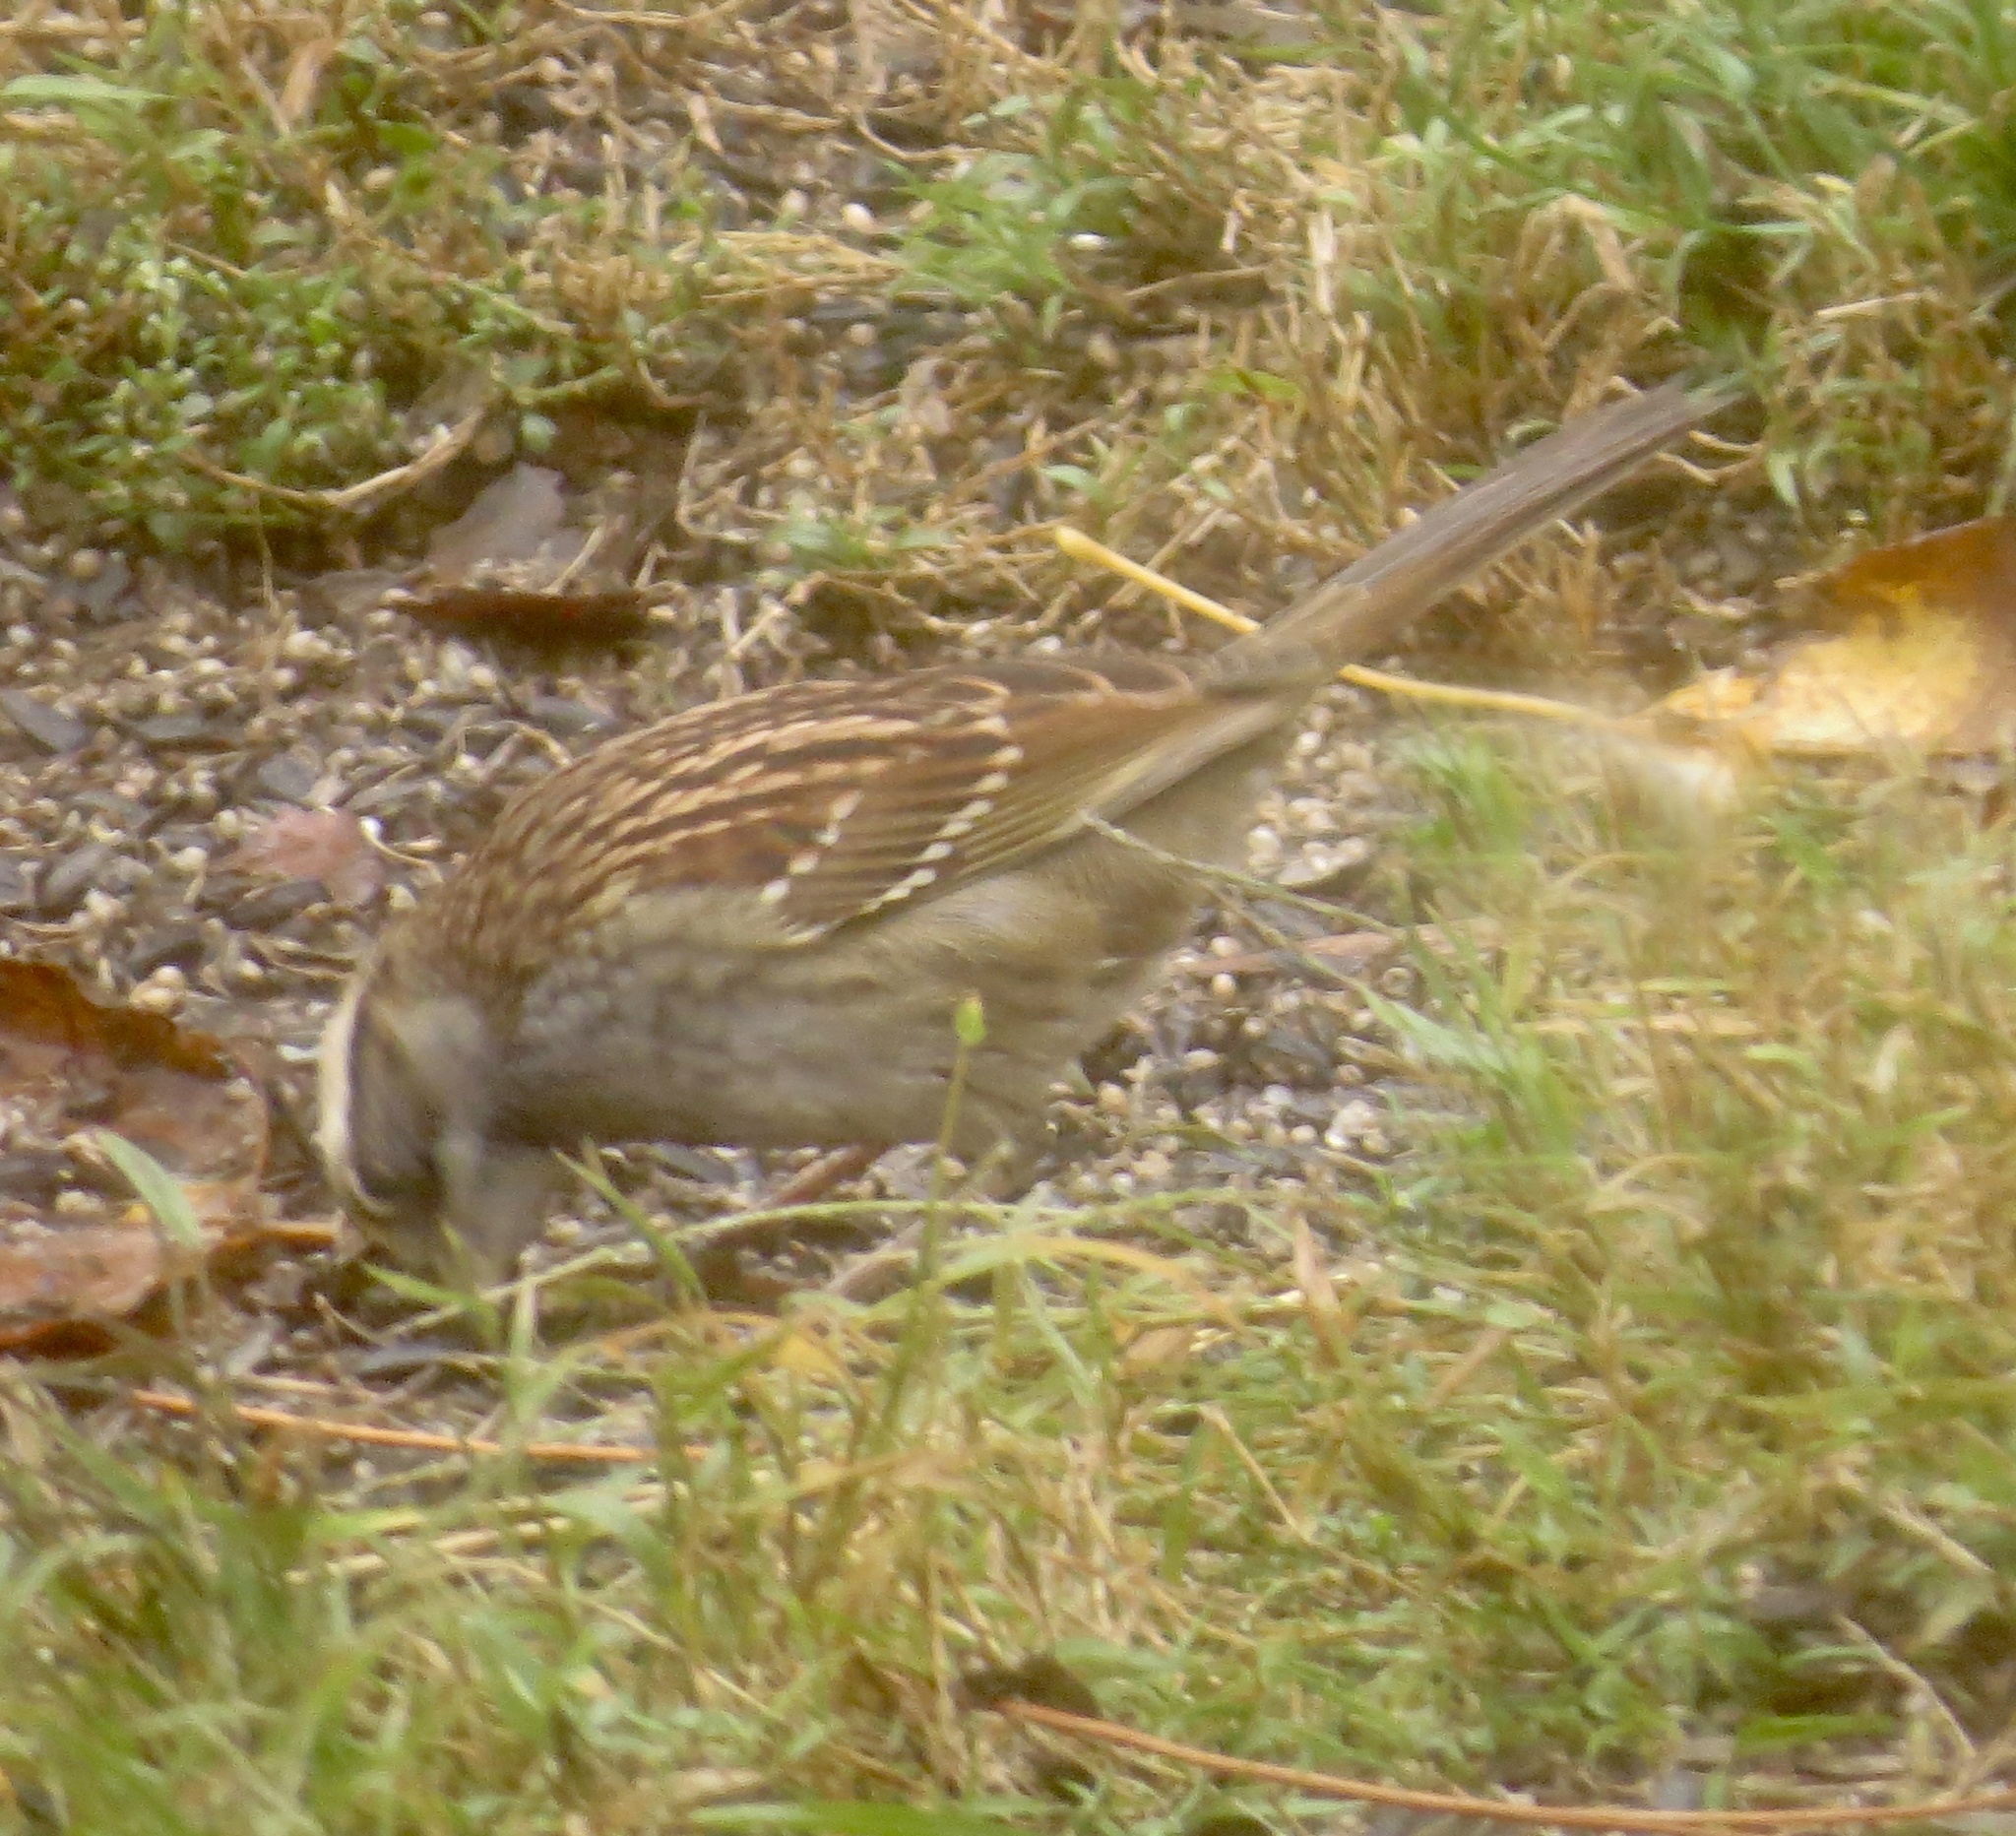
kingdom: Animalia
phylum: Chordata
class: Aves
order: Passeriformes
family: Passerellidae
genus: Zonotrichia
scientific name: Zonotrichia albicollis
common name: White-throated sparrow
